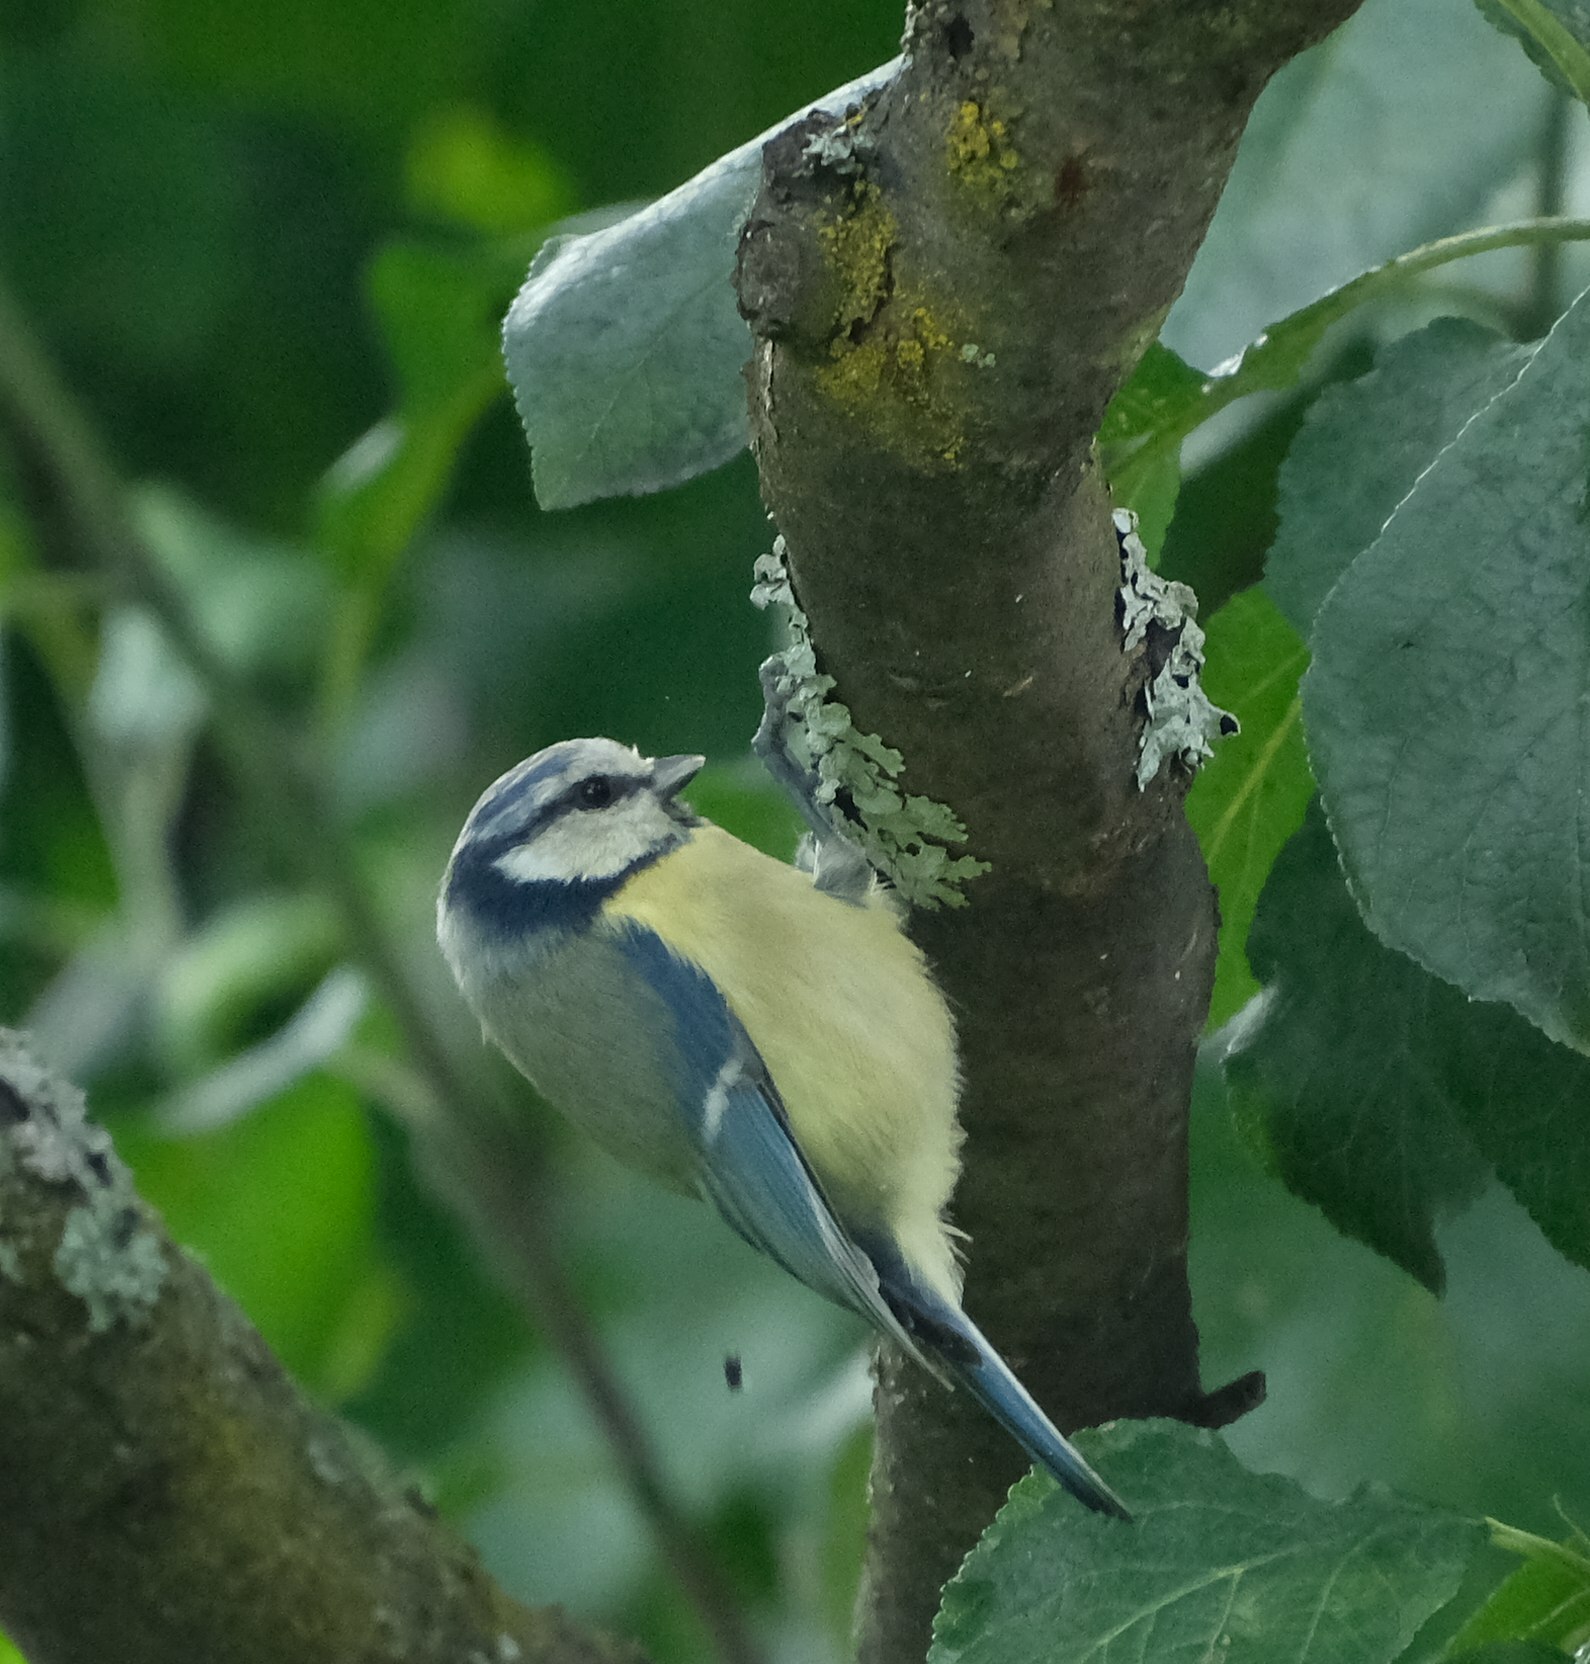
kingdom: Animalia
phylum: Chordata
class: Aves
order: Passeriformes
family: Paridae
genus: Cyanistes
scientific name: Cyanistes caeruleus
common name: Eurasian blue tit
